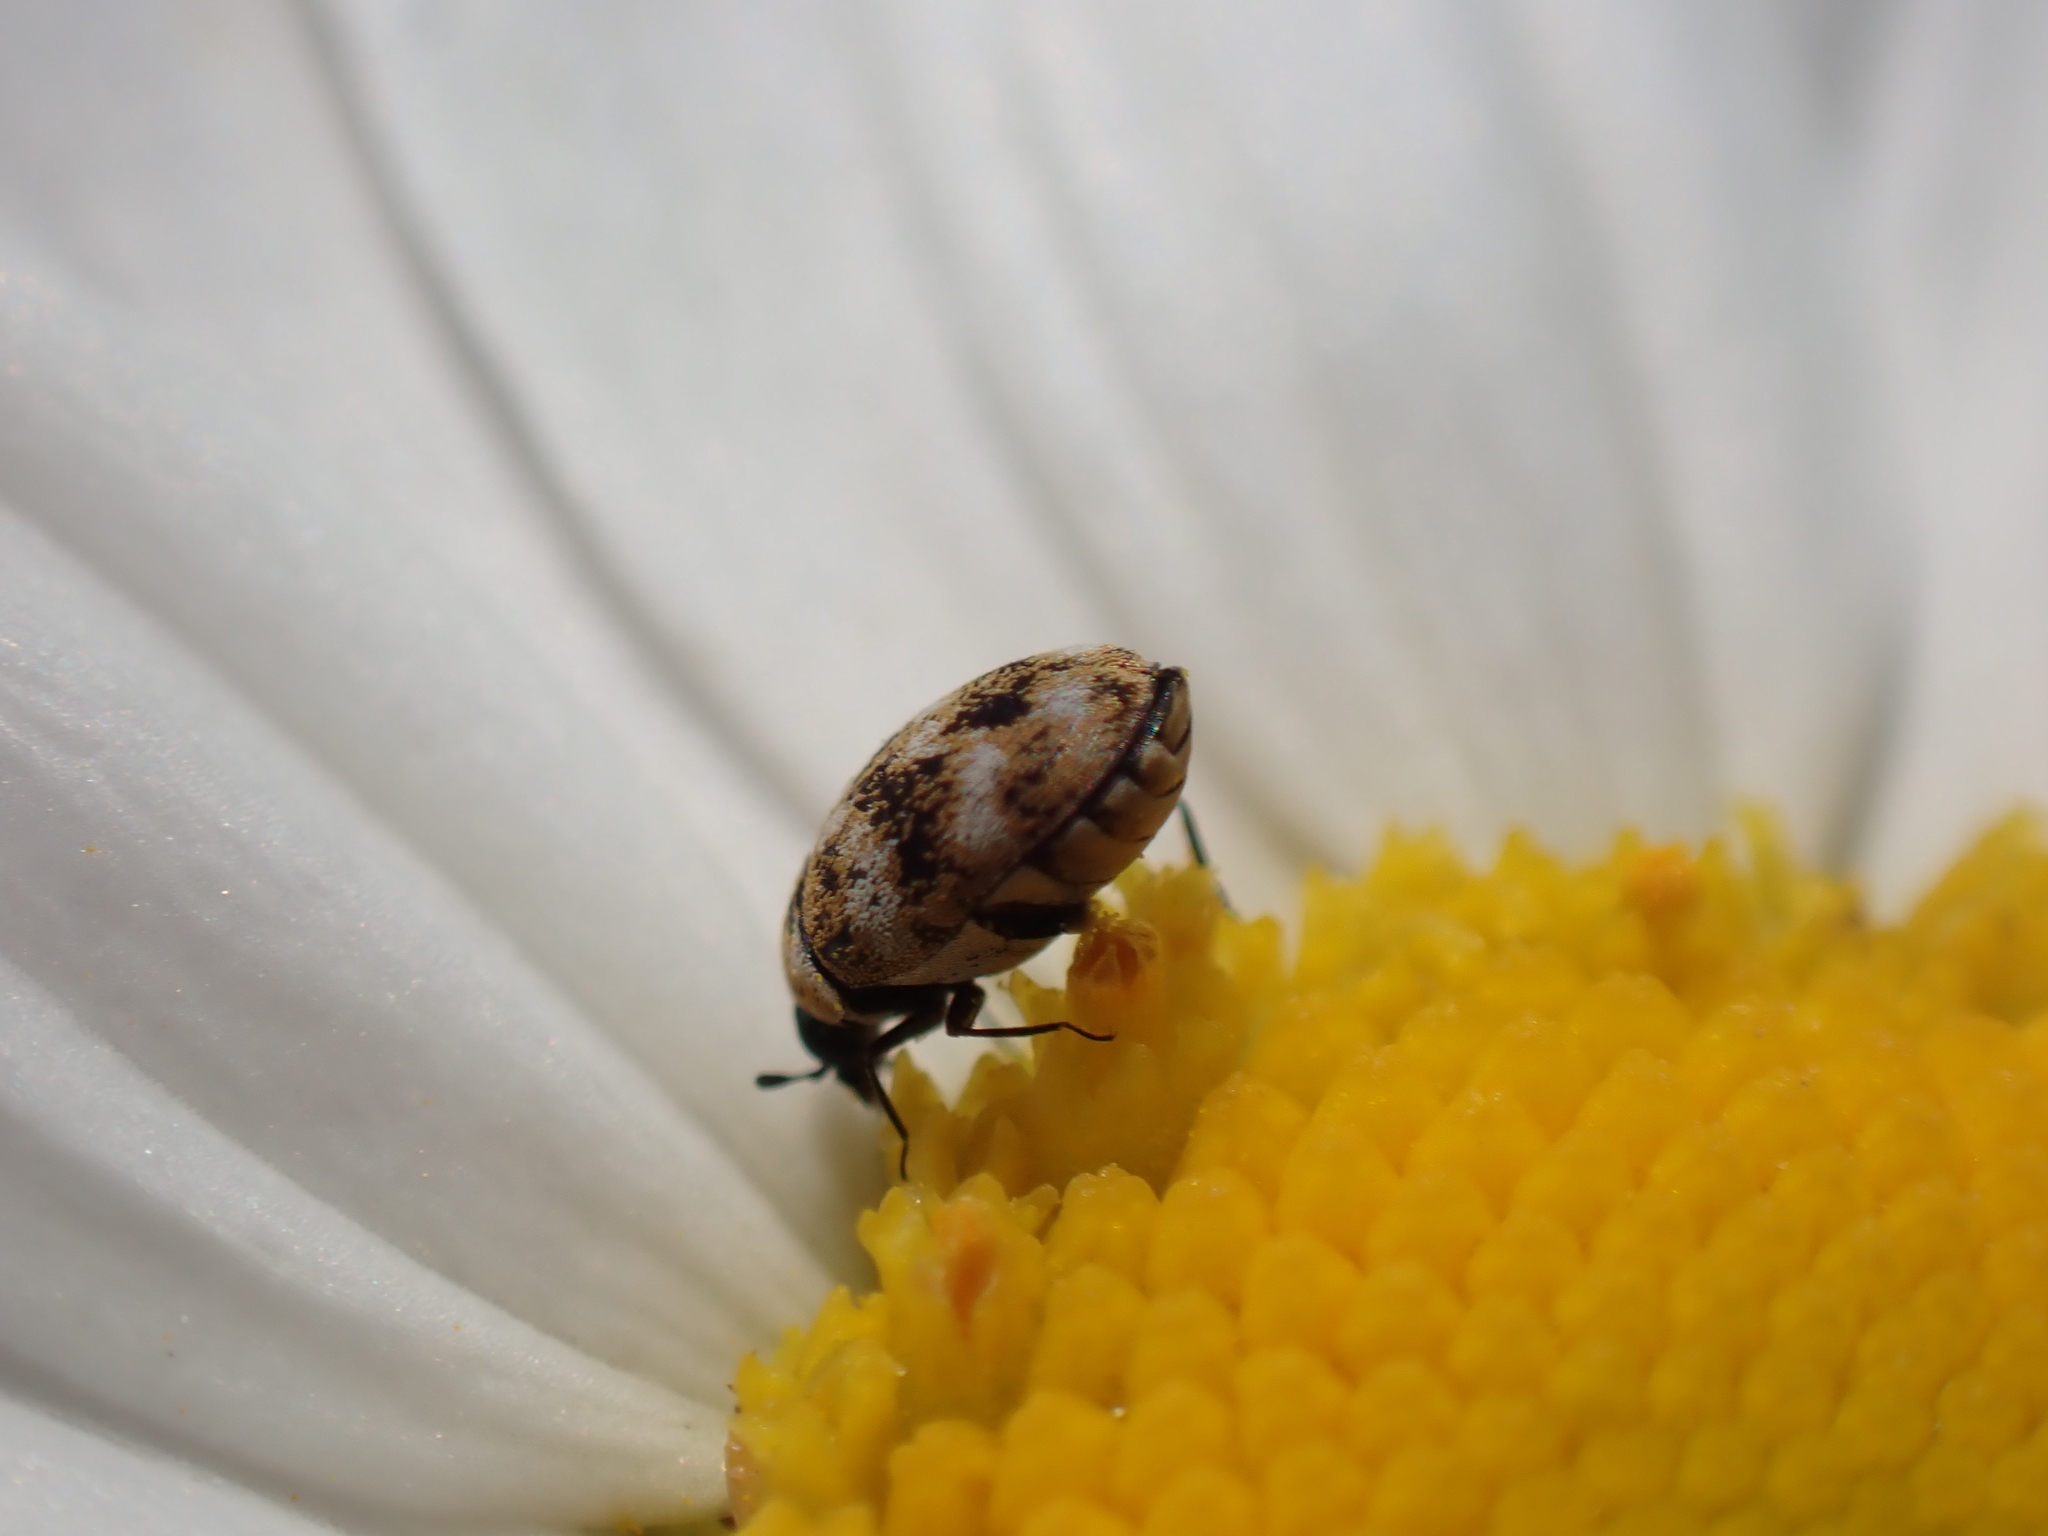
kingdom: Animalia
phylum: Arthropoda
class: Insecta
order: Coleoptera
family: Dermestidae
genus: Anthrenus
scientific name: Anthrenus verbasci
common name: Varied carpet beetle
